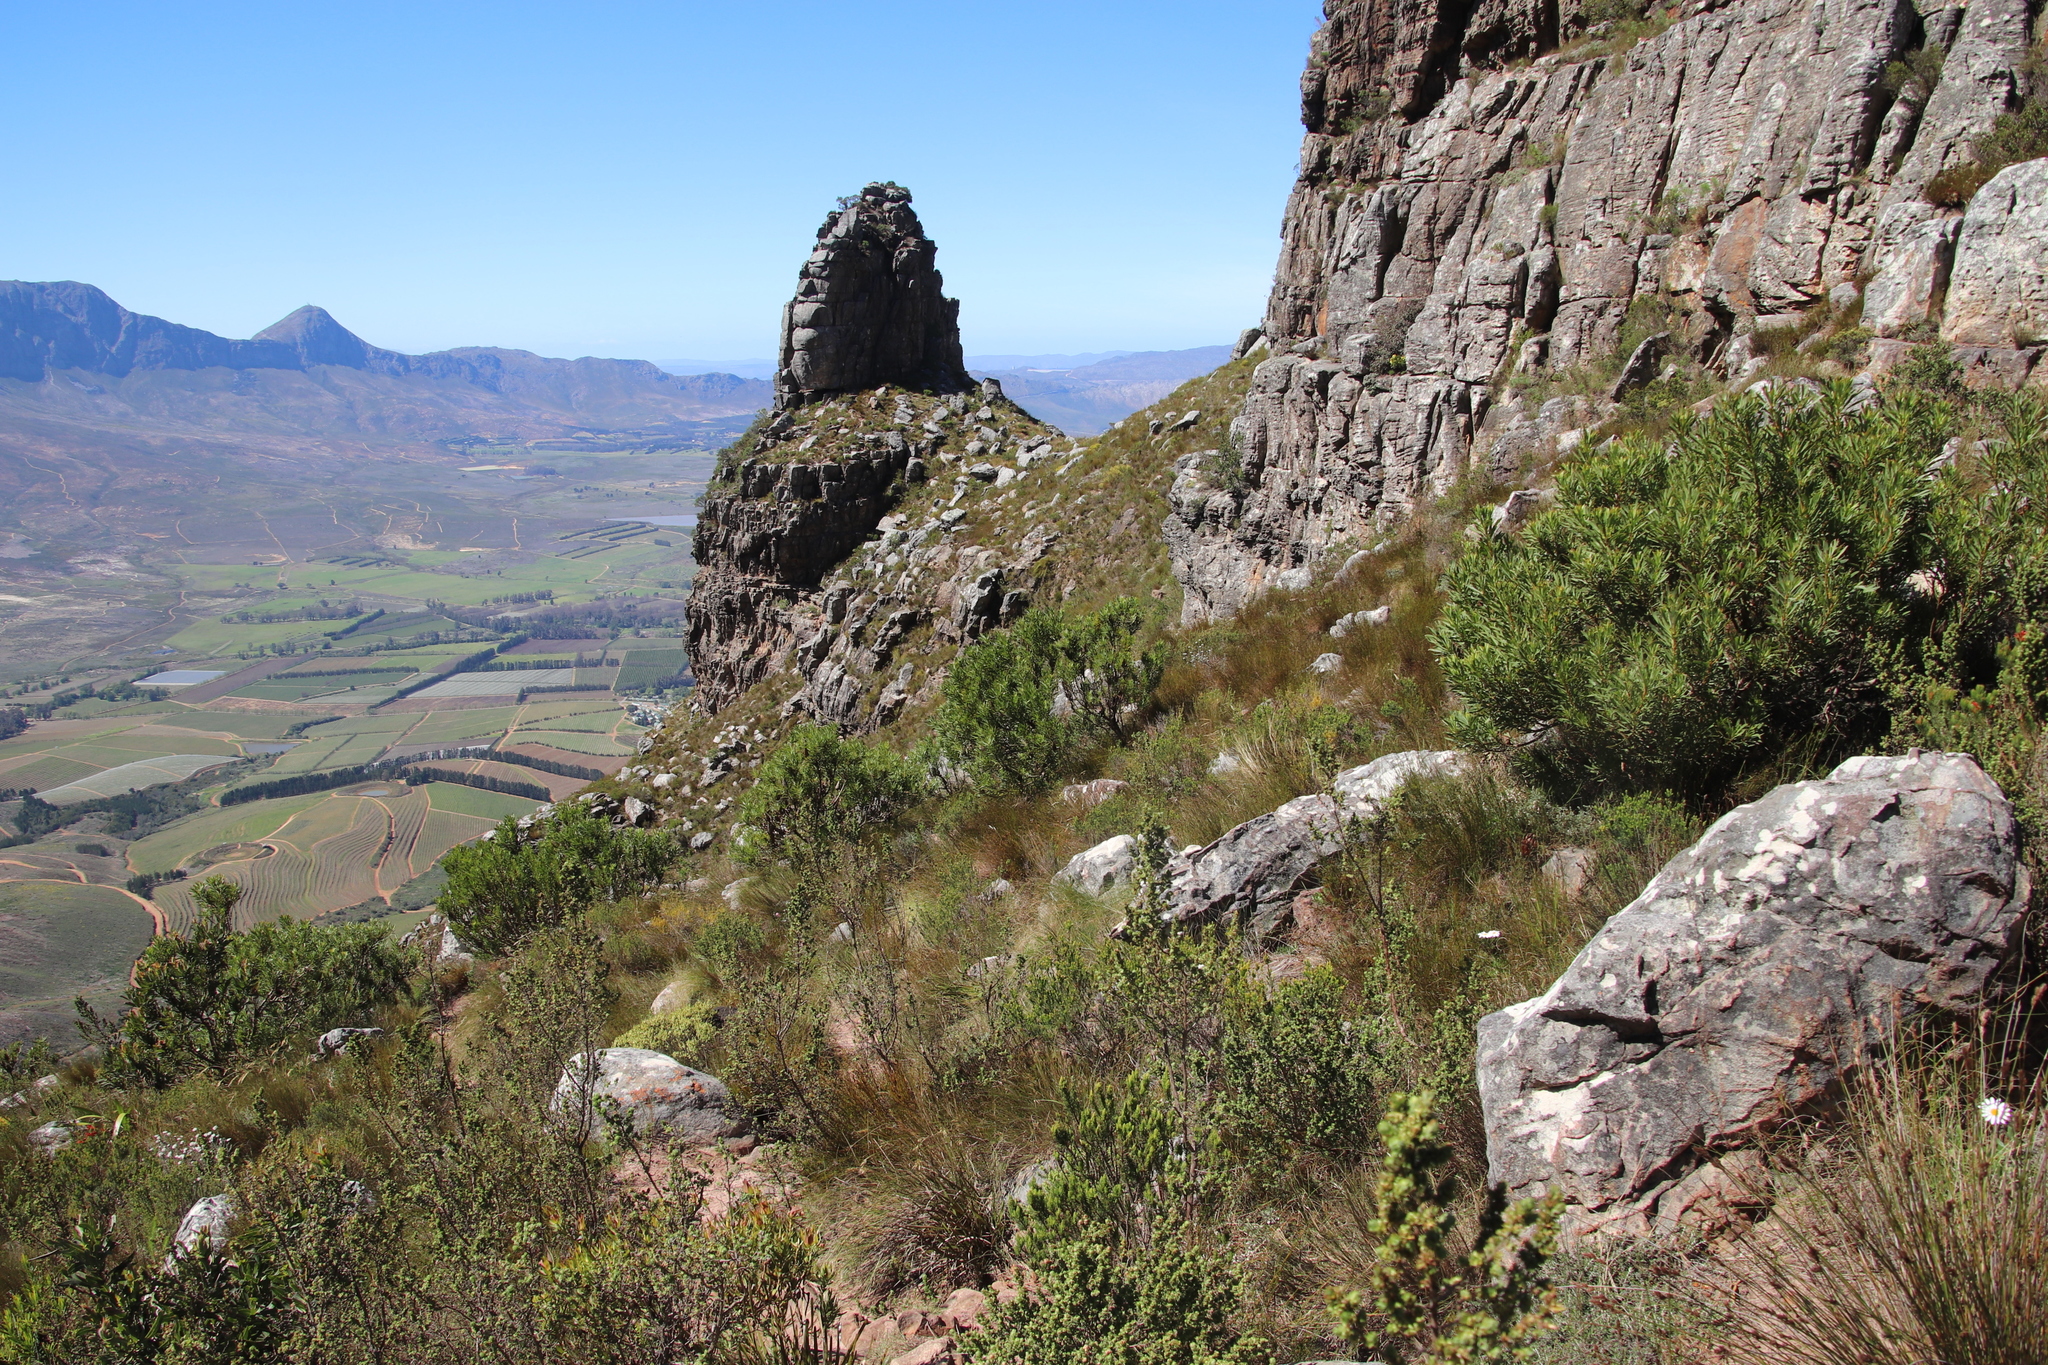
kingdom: Plantae
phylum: Tracheophyta
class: Magnoliopsida
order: Proteales
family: Proteaceae
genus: Protea
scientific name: Protea repens
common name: Sugarbush
